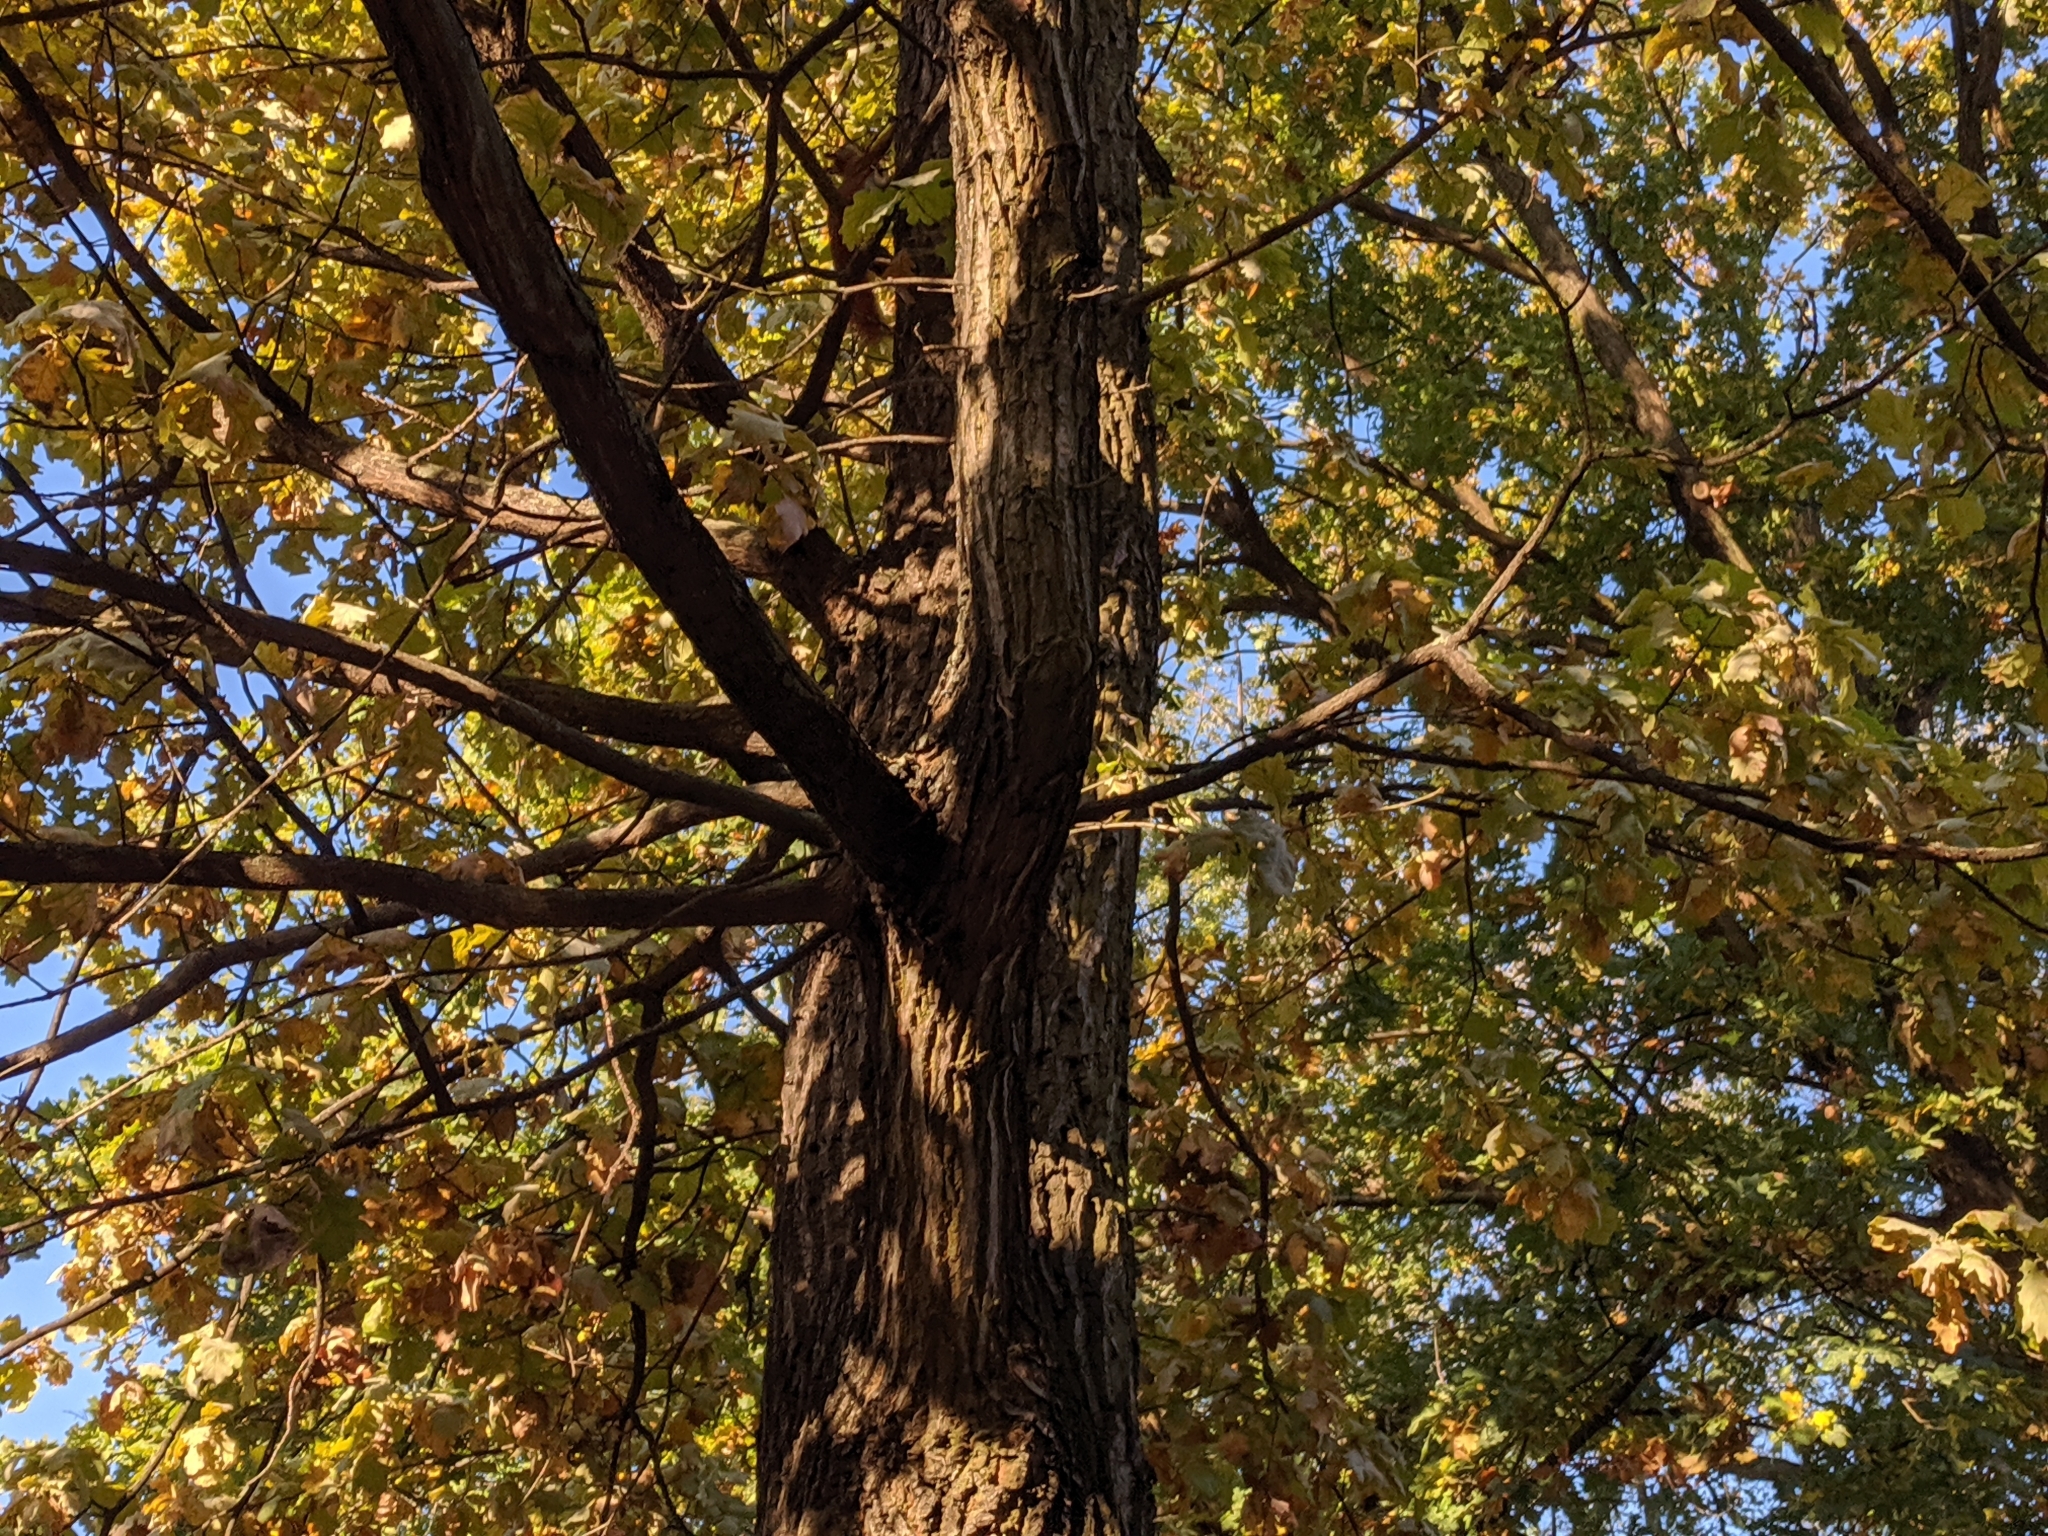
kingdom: Animalia
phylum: Chordata
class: Mammalia
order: Rodentia
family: Sciuridae
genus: Sciurus
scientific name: Sciurus vulgaris
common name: Eurasian red squirrel
